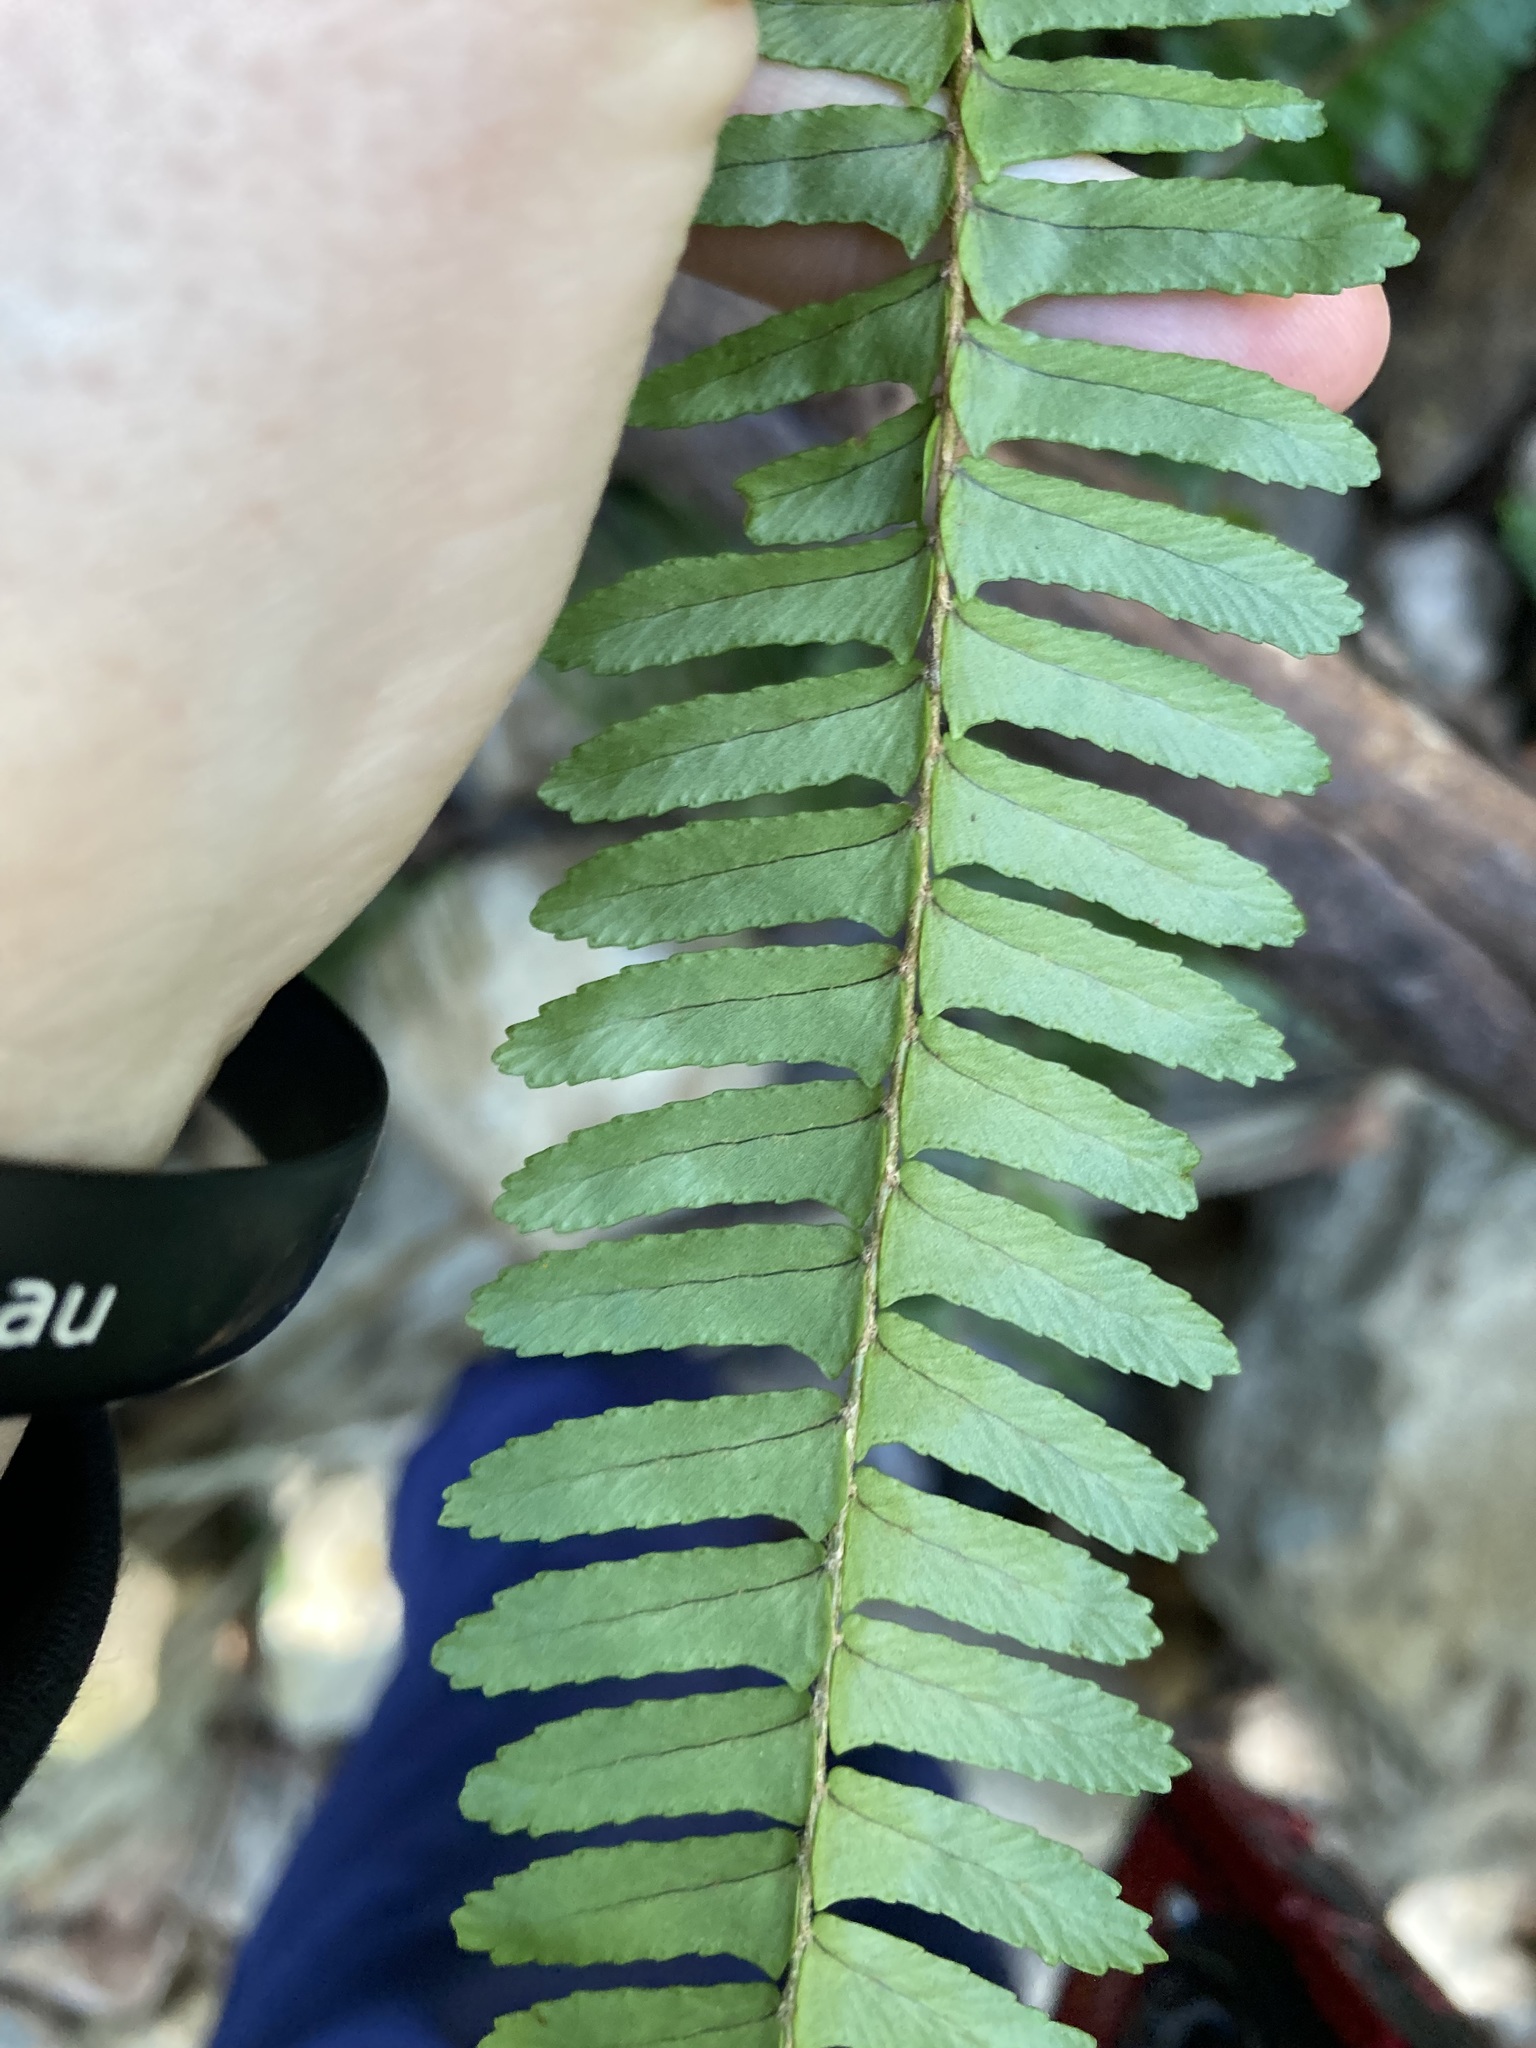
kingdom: Plantae
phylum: Tracheophyta
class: Polypodiopsida
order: Polypodiales
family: Nephrolepidaceae
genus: Nephrolepis
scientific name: Nephrolepis cordifolia
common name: Narrow swordfern
